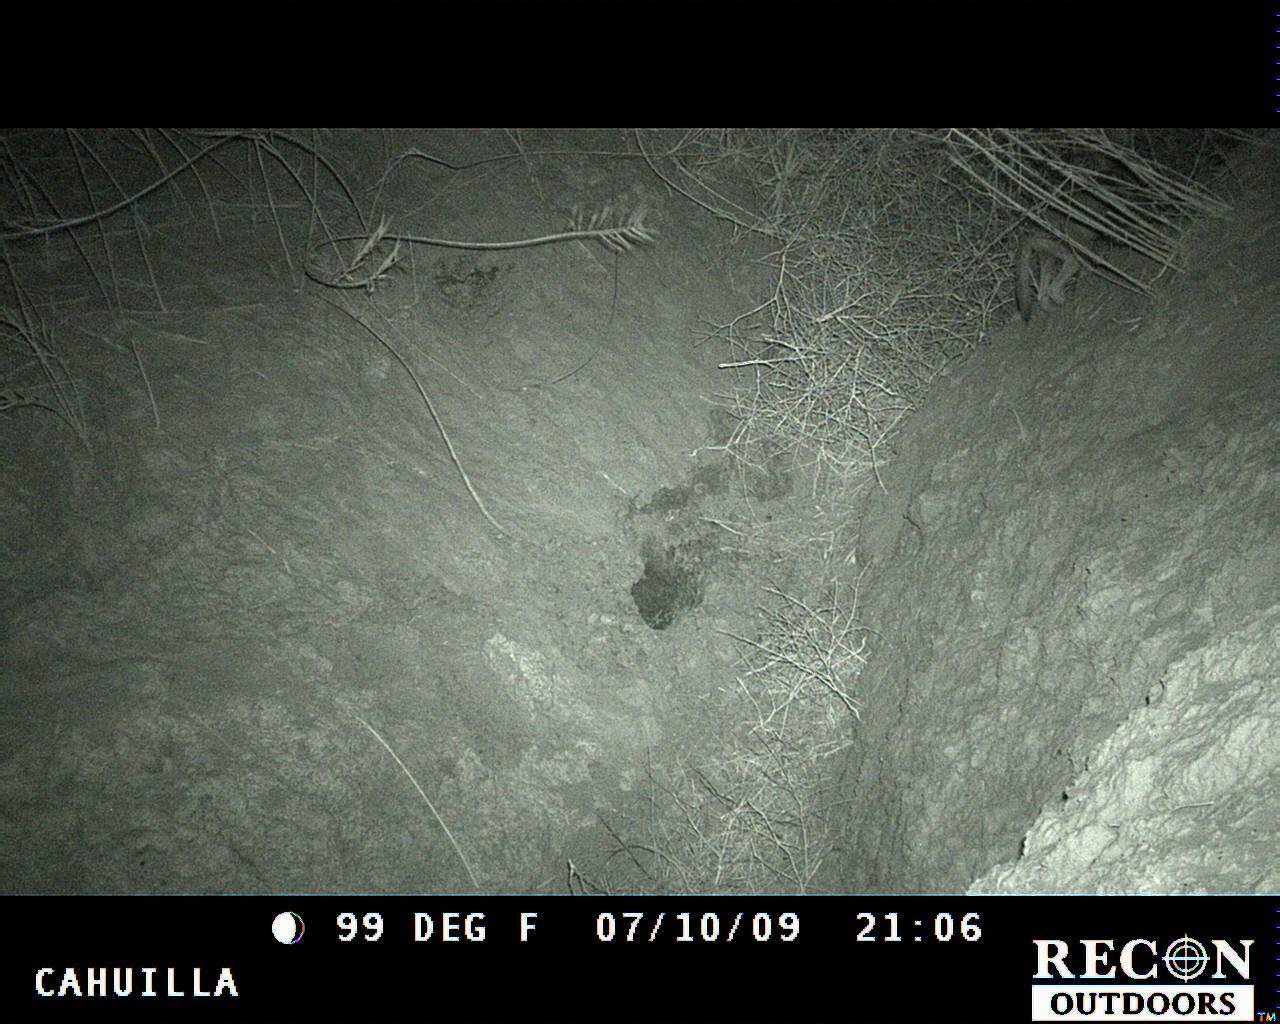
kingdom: Animalia
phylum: Chordata
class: Mammalia
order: Carnivora
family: Canidae
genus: Canis
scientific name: Canis latrans
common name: Coyote
